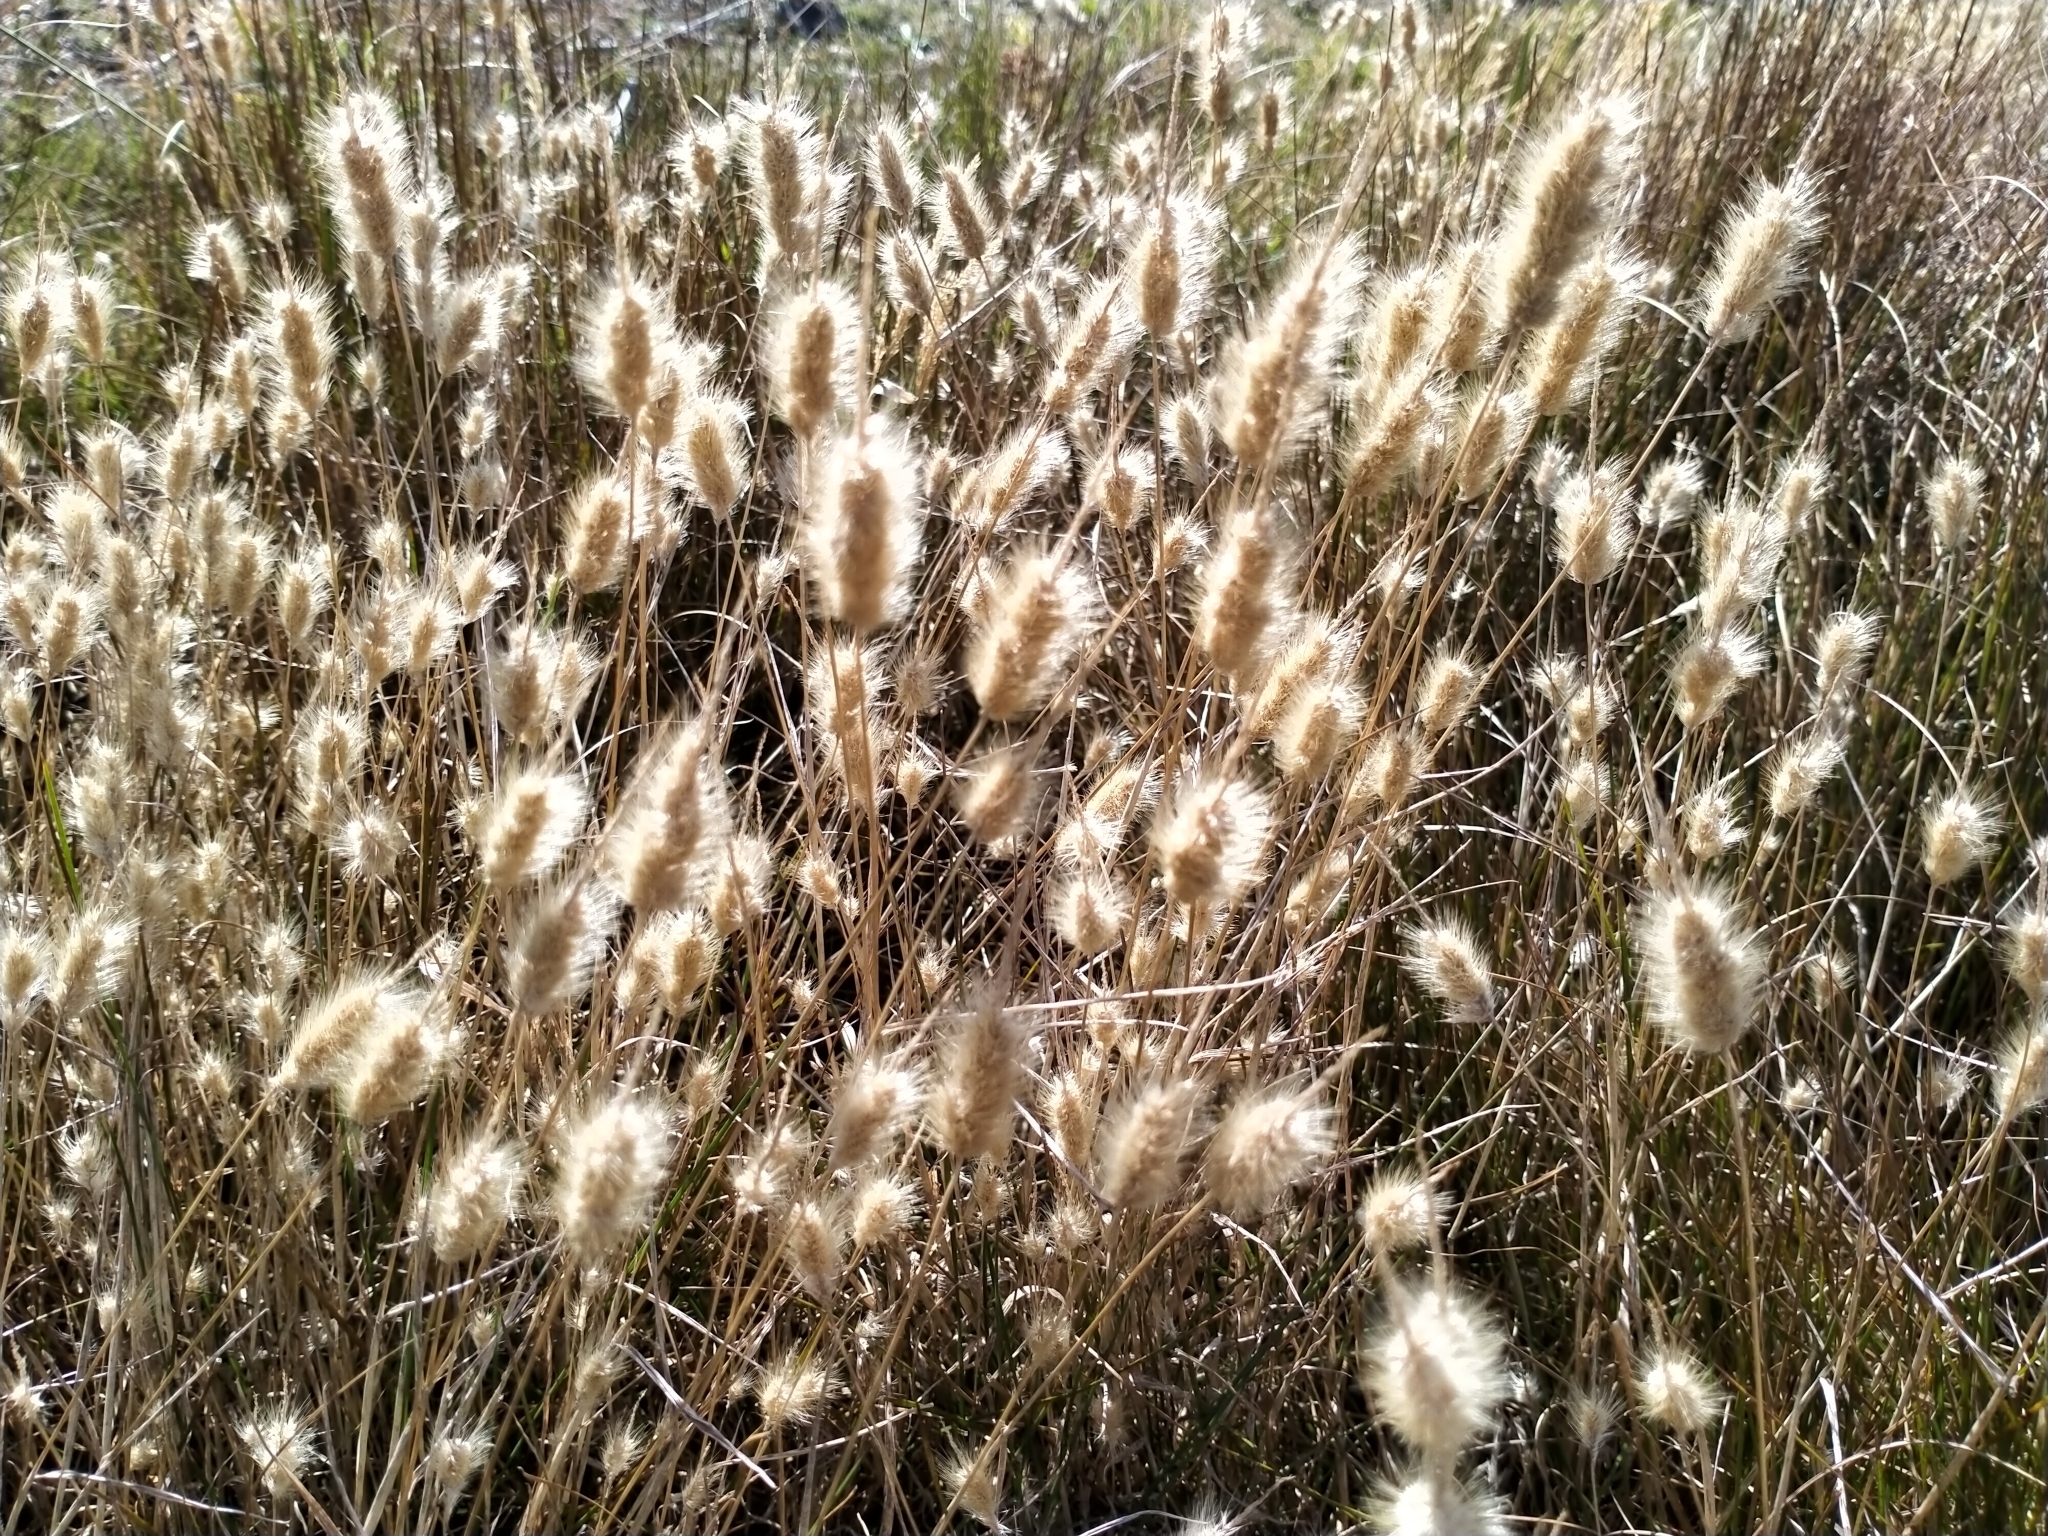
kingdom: Plantae
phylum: Tracheophyta
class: Liliopsida
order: Poales
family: Poaceae
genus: Cynosurus
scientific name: Cynosurus echinatus
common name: Rough dog's-tail
